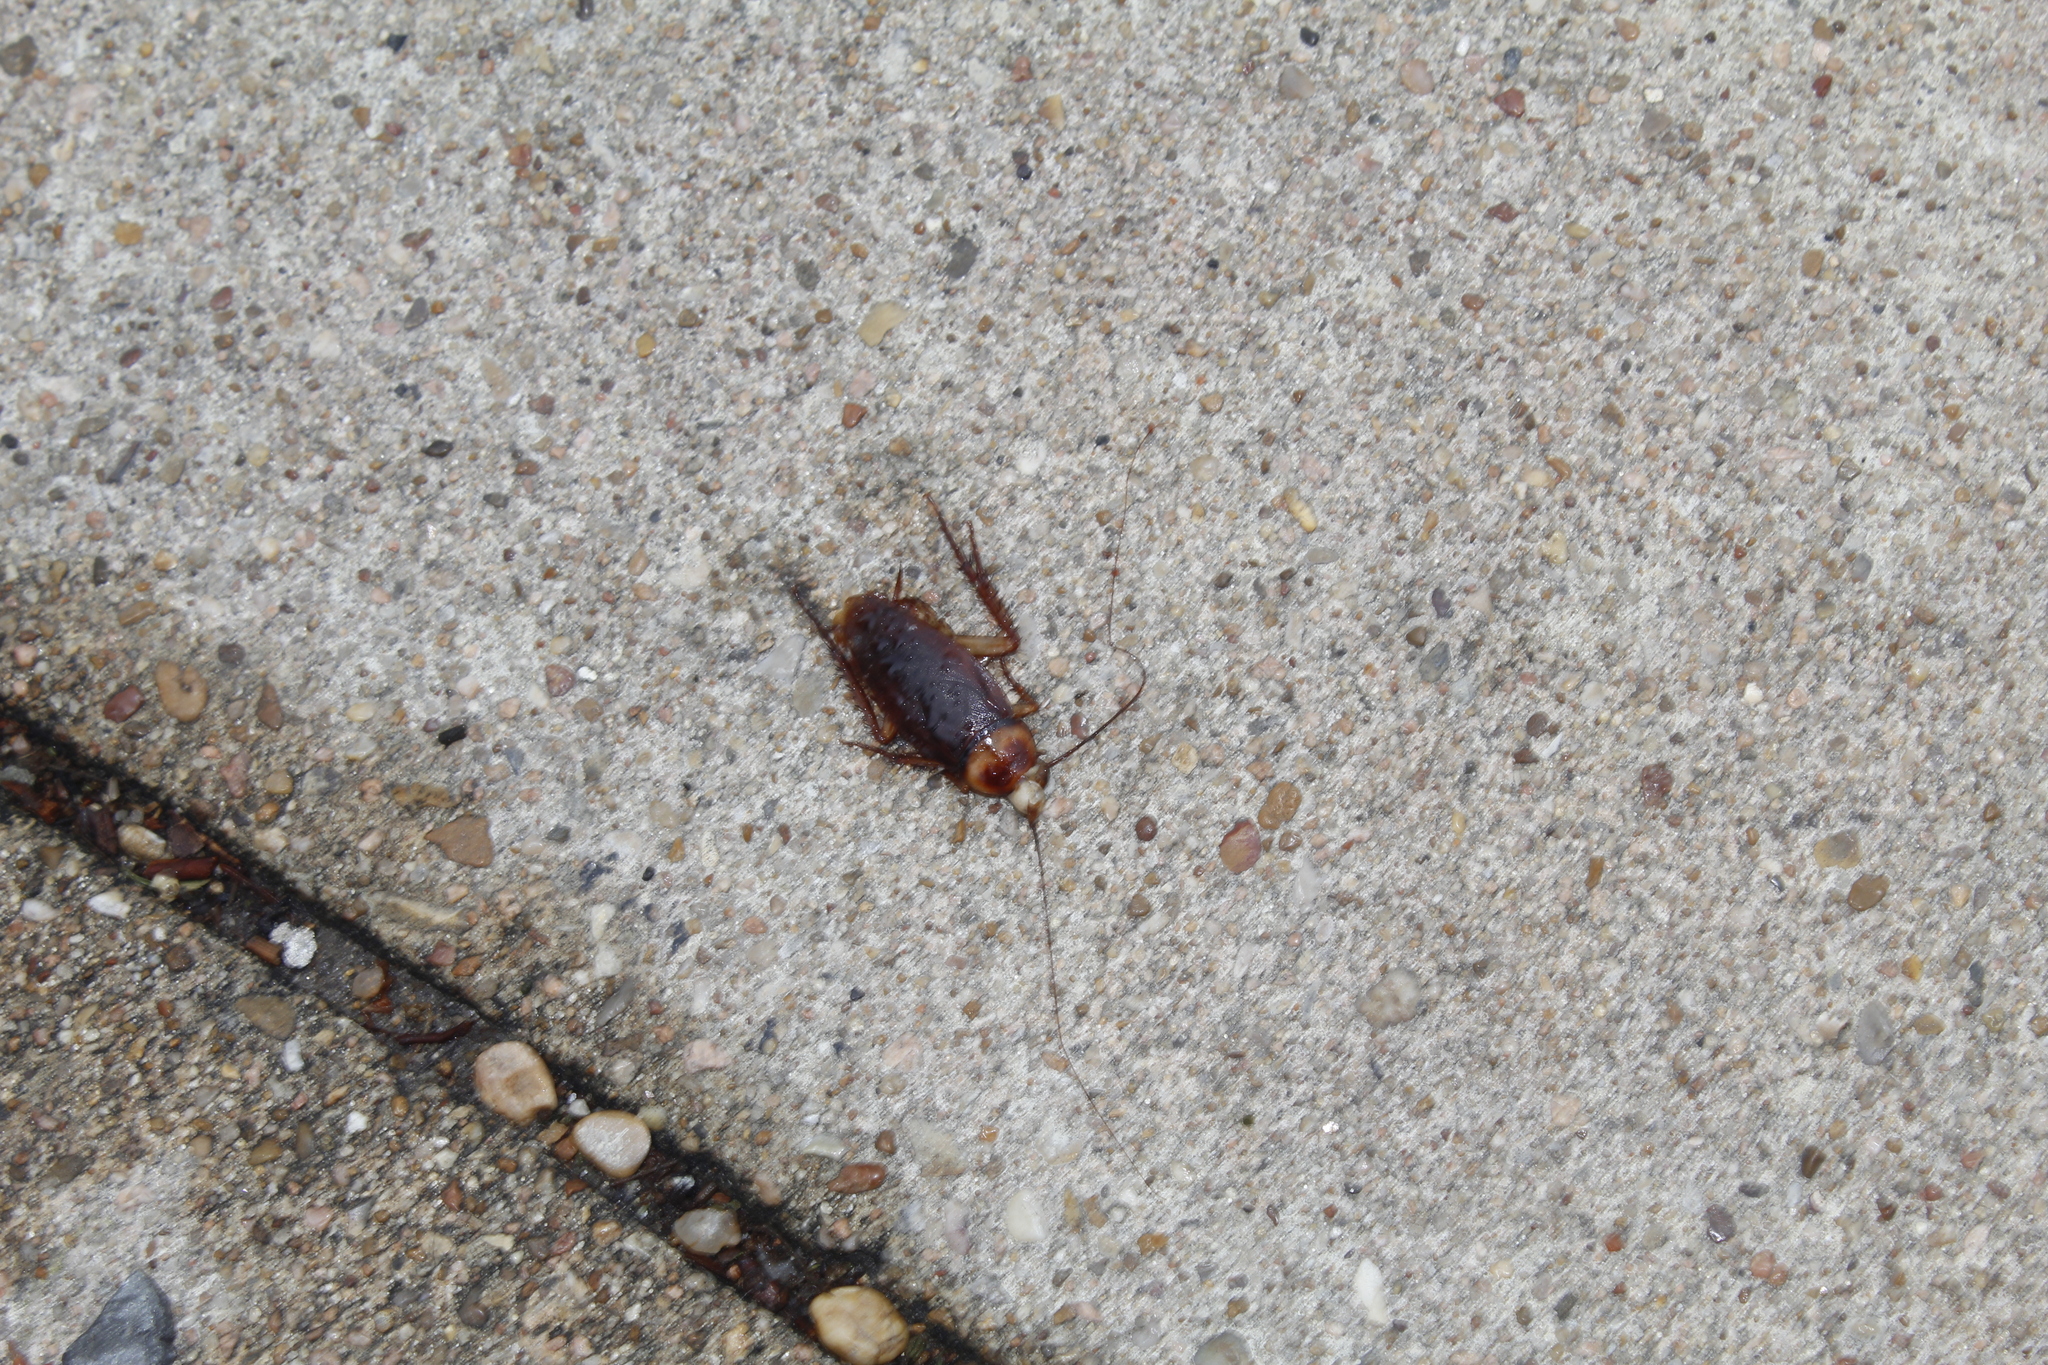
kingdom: Animalia
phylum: Arthropoda
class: Insecta
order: Blattodea
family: Blattidae
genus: Periplaneta
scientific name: Periplaneta americana
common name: American cockroach
